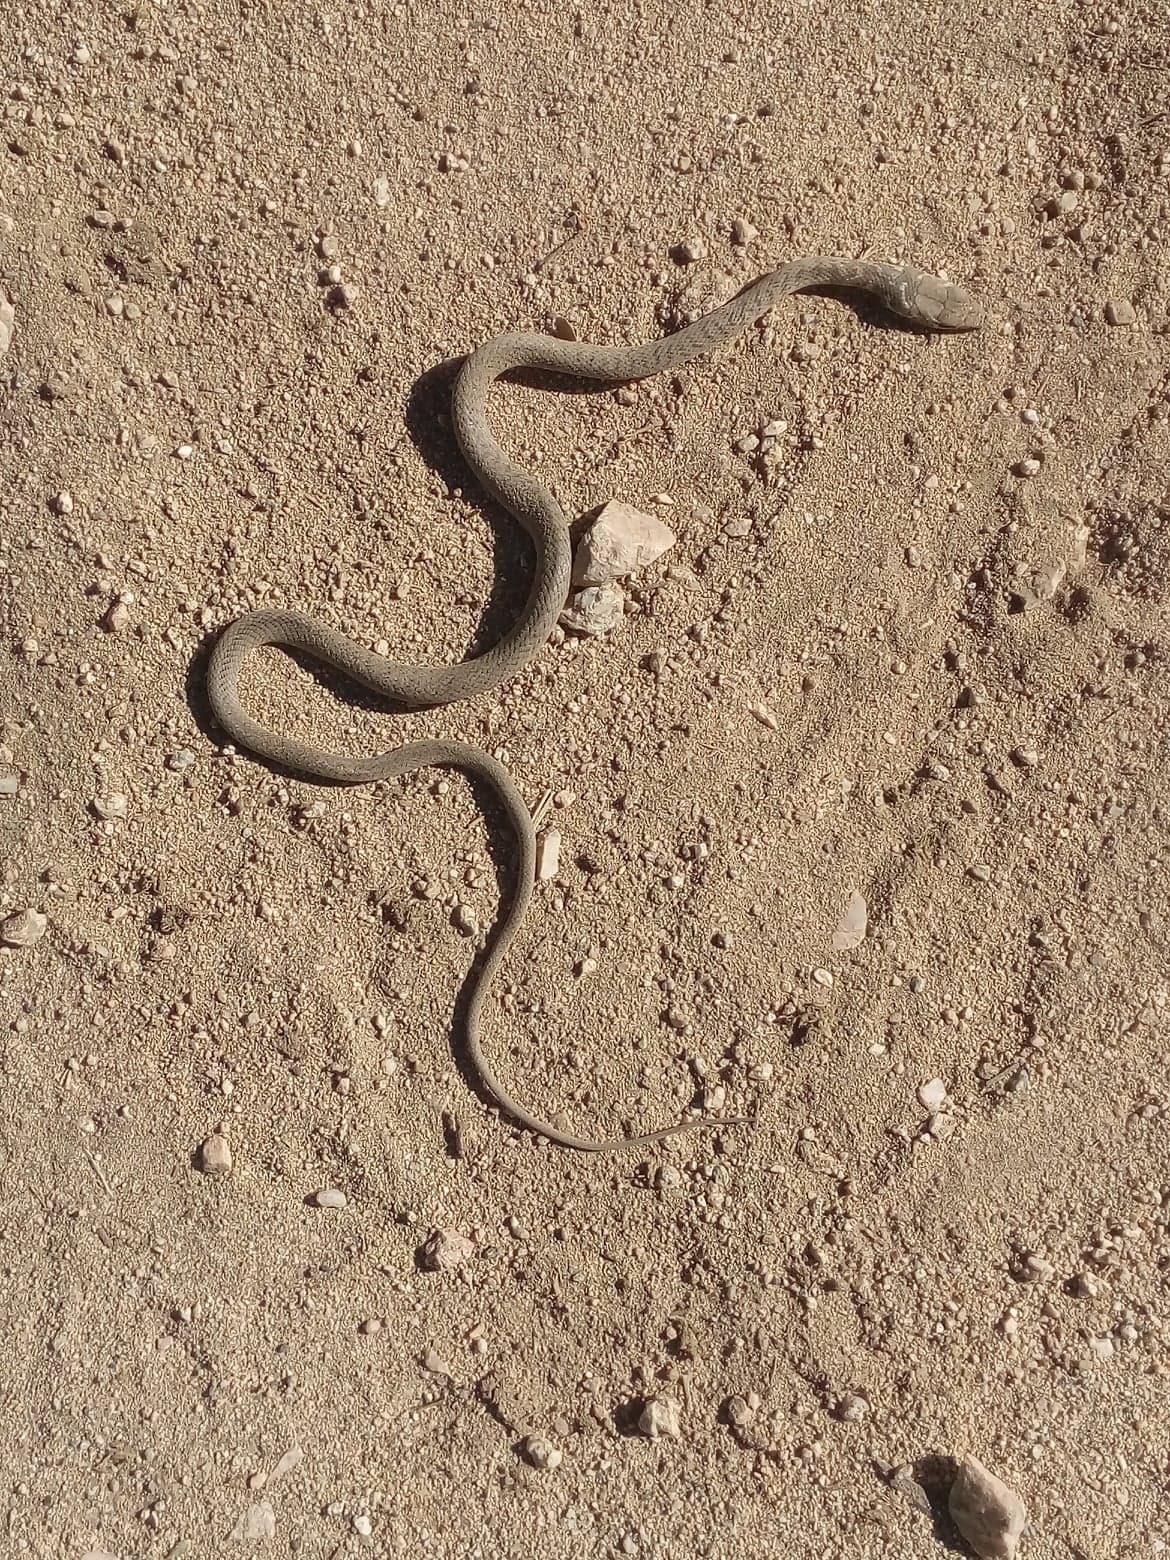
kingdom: Animalia
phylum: Chordata
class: Squamata
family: Colubridae
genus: Masticophis
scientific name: Masticophis fuliginosus
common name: Baja california coachwhip
